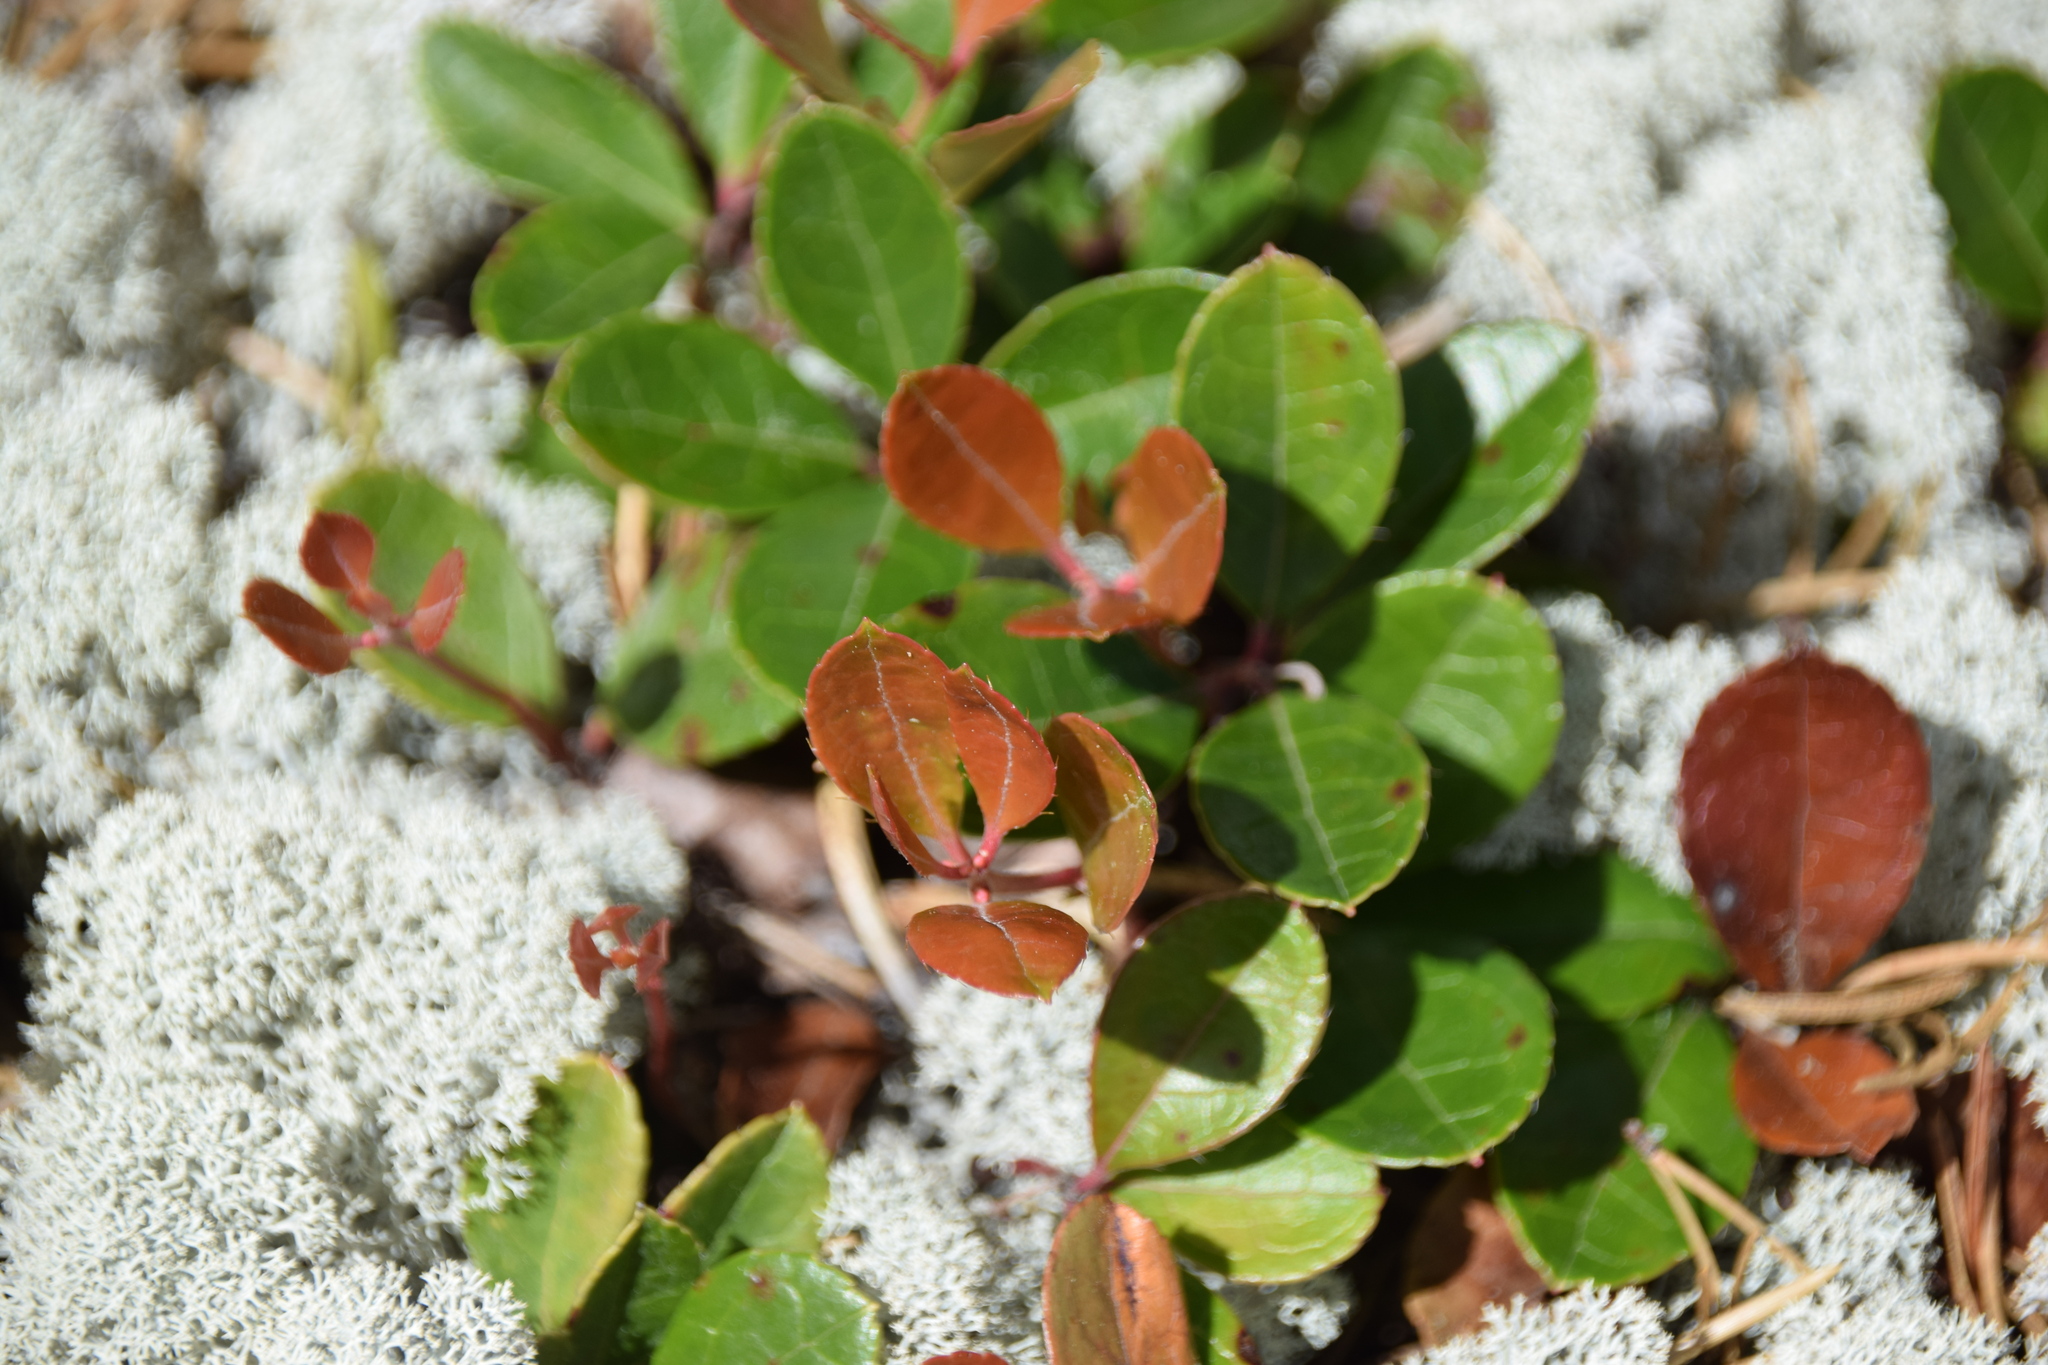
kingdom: Plantae
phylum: Tracheophyta
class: Magnoliopsida
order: Ericales
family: Ericaceae
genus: Gaultheria
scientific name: Gaultheria procumbens
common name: Checkerberry
